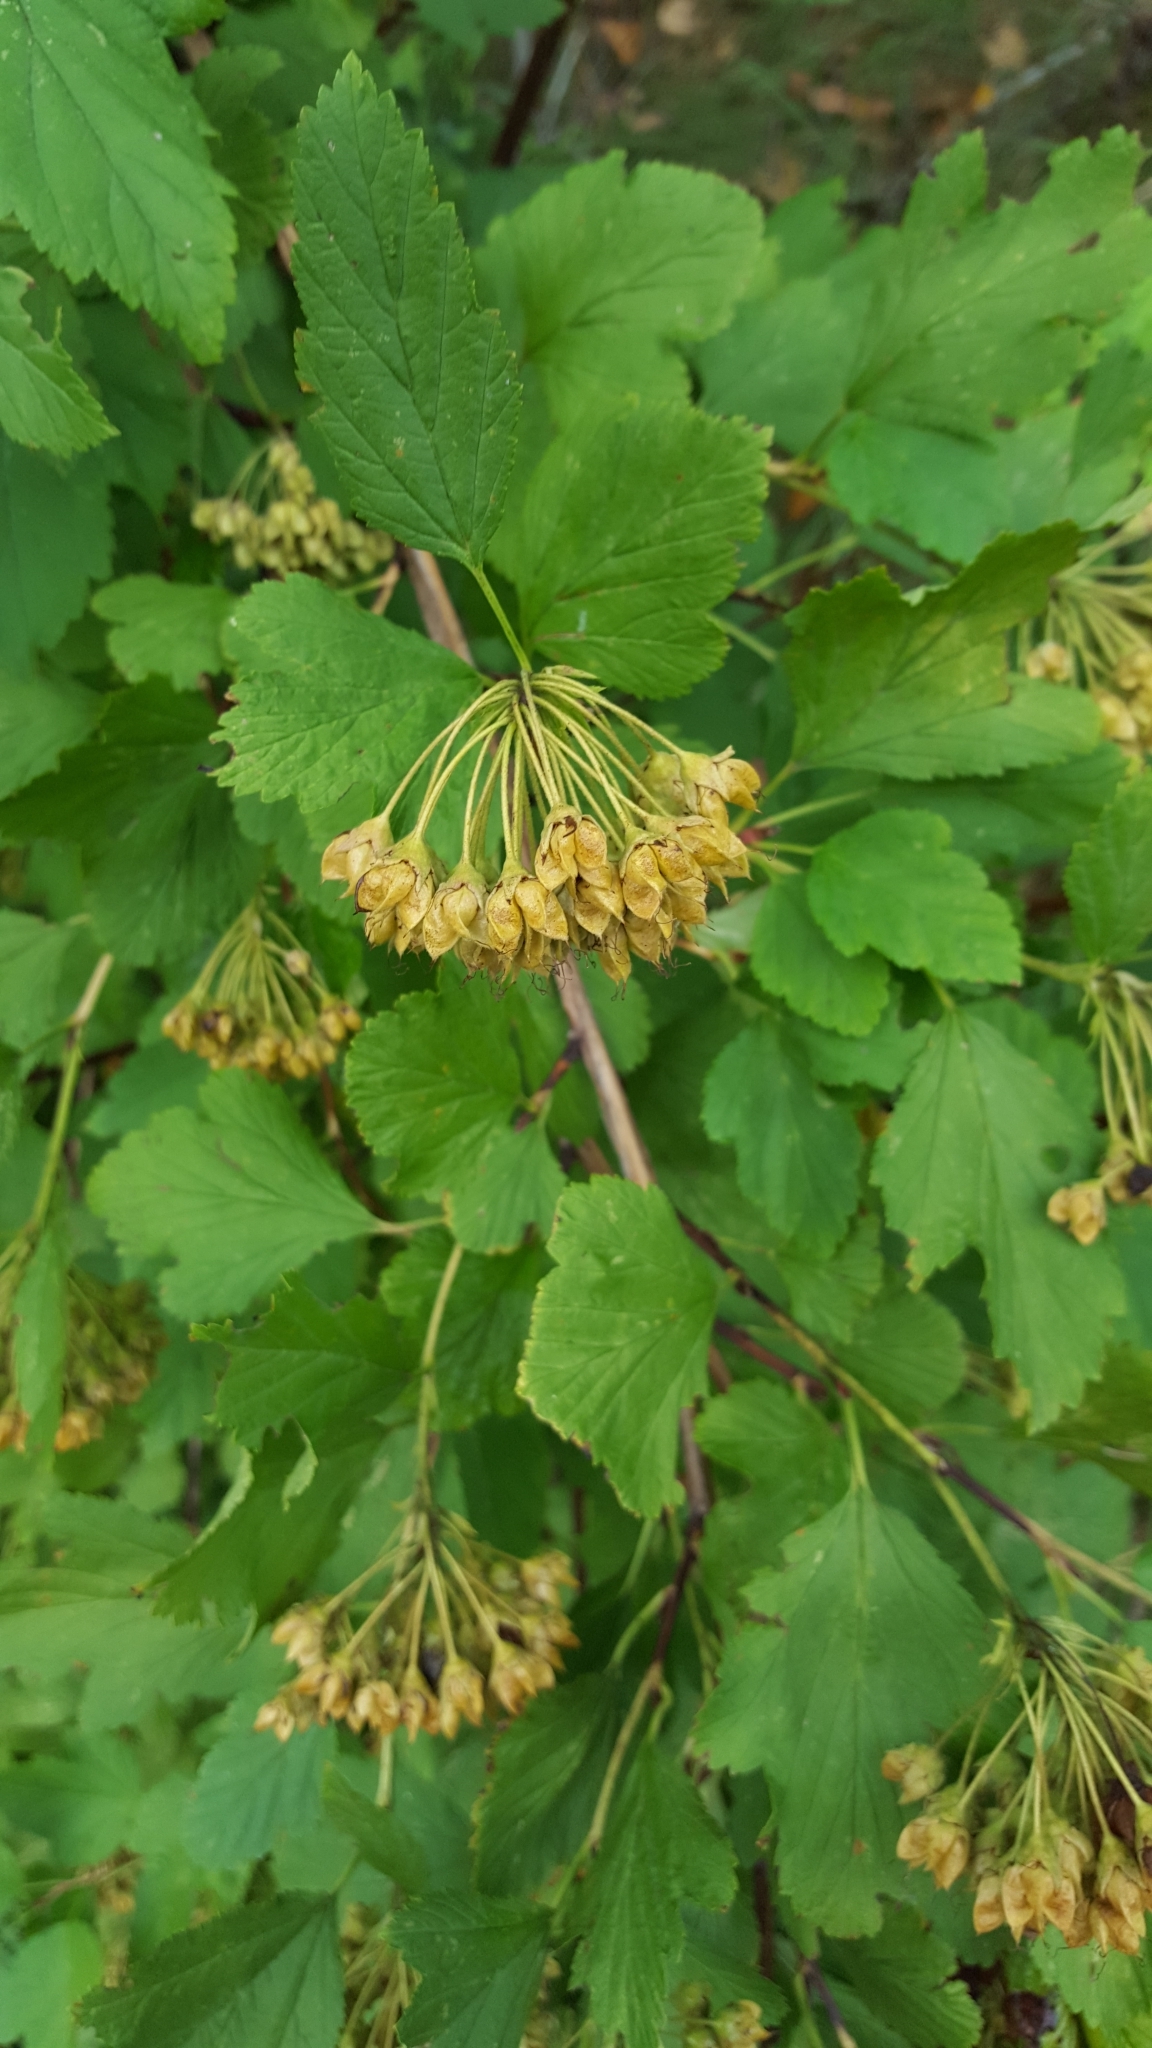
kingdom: Plantae
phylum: Tracheophyta
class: Magnoliopsida
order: Rosales
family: Rosaceae
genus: Physocarpus
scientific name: Physocarpus opulifolius
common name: Ninebark
